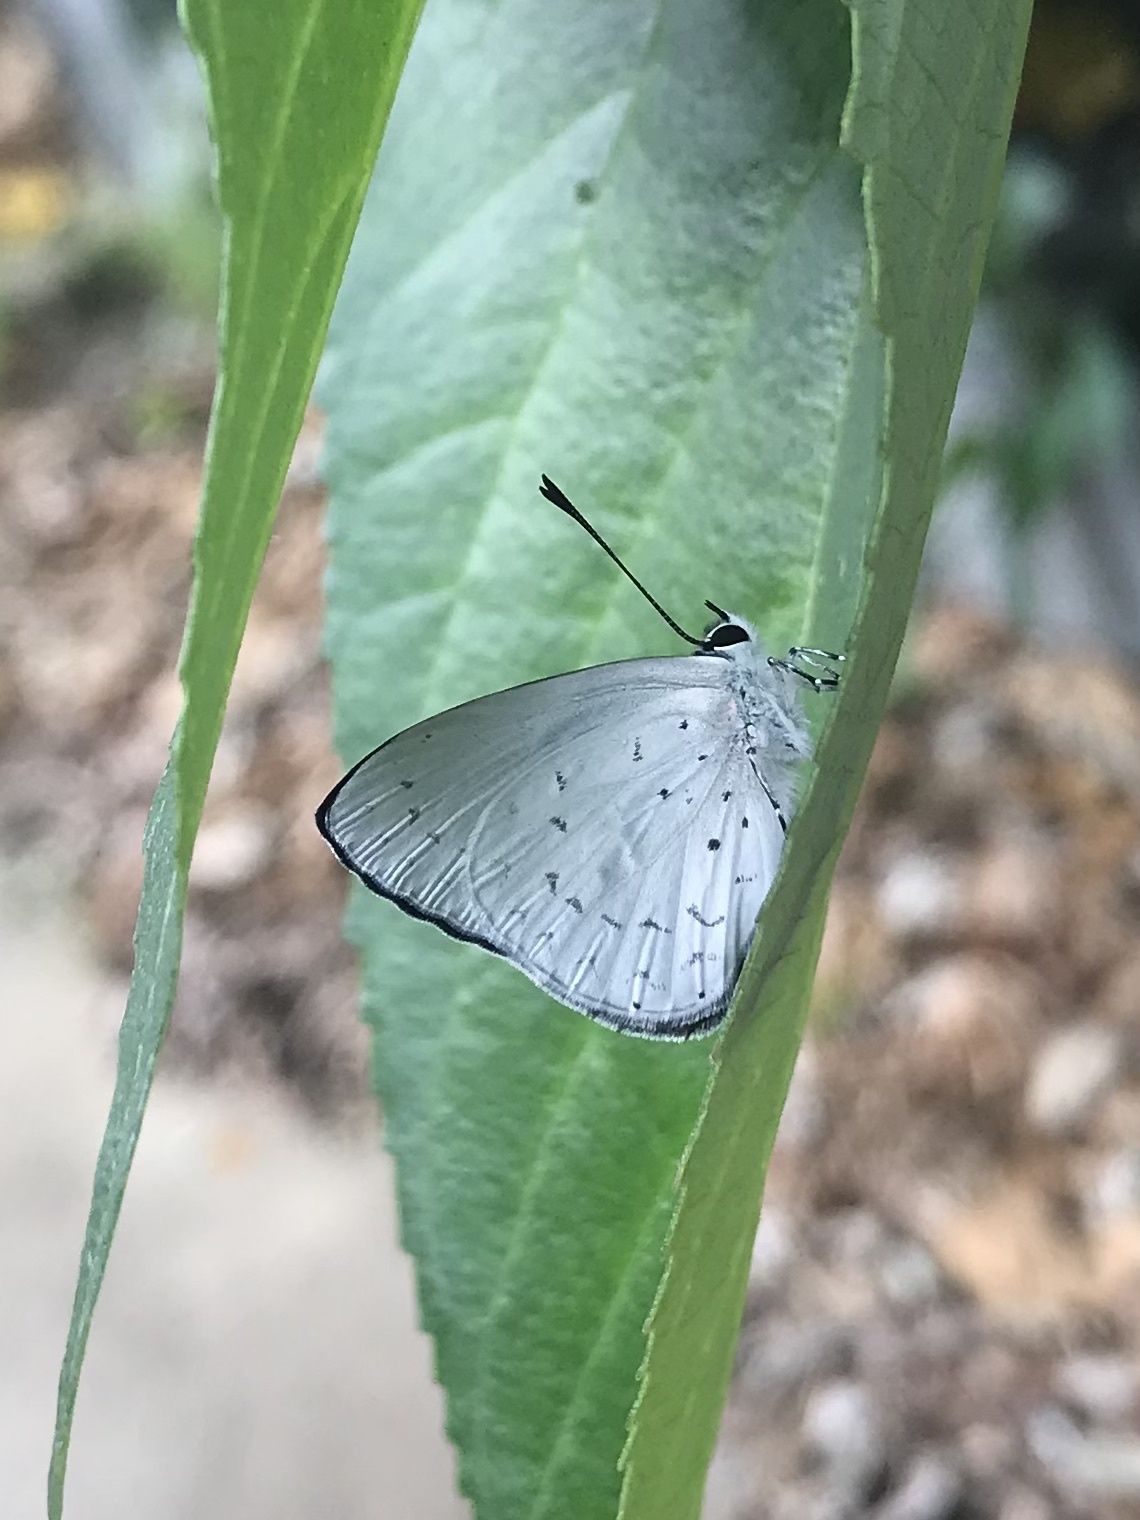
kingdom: Animalia
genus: Eirmocides
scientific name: Eirmocides
